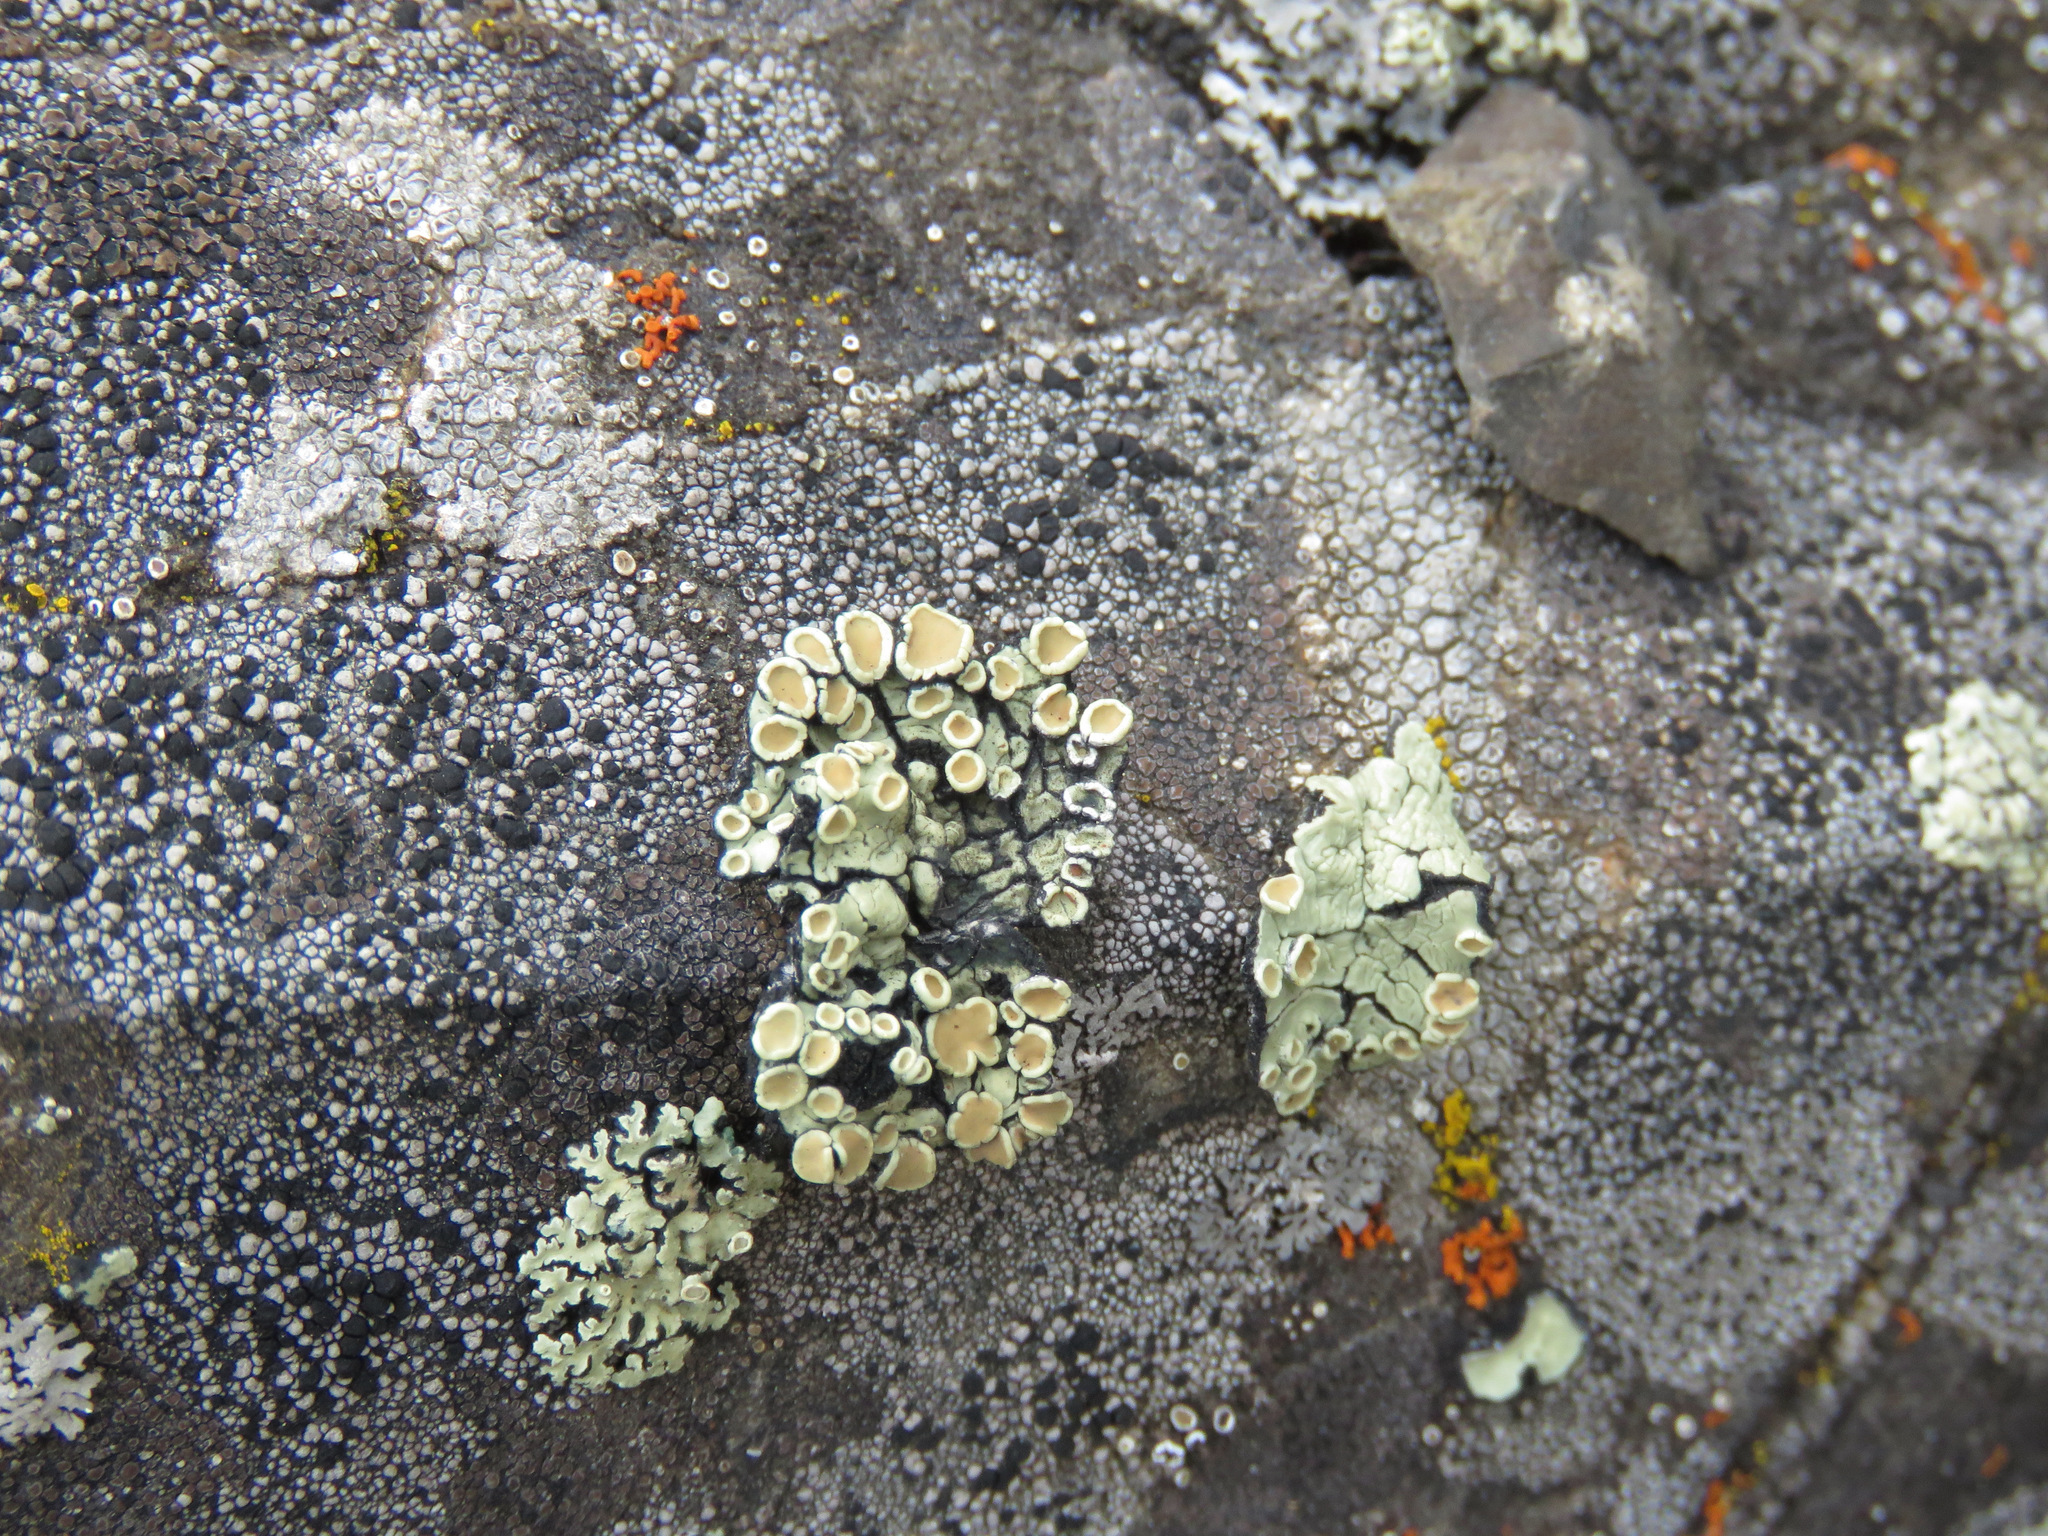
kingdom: Fungi
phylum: Ascomycota
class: Lecanoromycetes
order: Lecanorales
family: Lecanoraceae
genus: Omphalodina
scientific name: Omphalodina chrysoleuca
